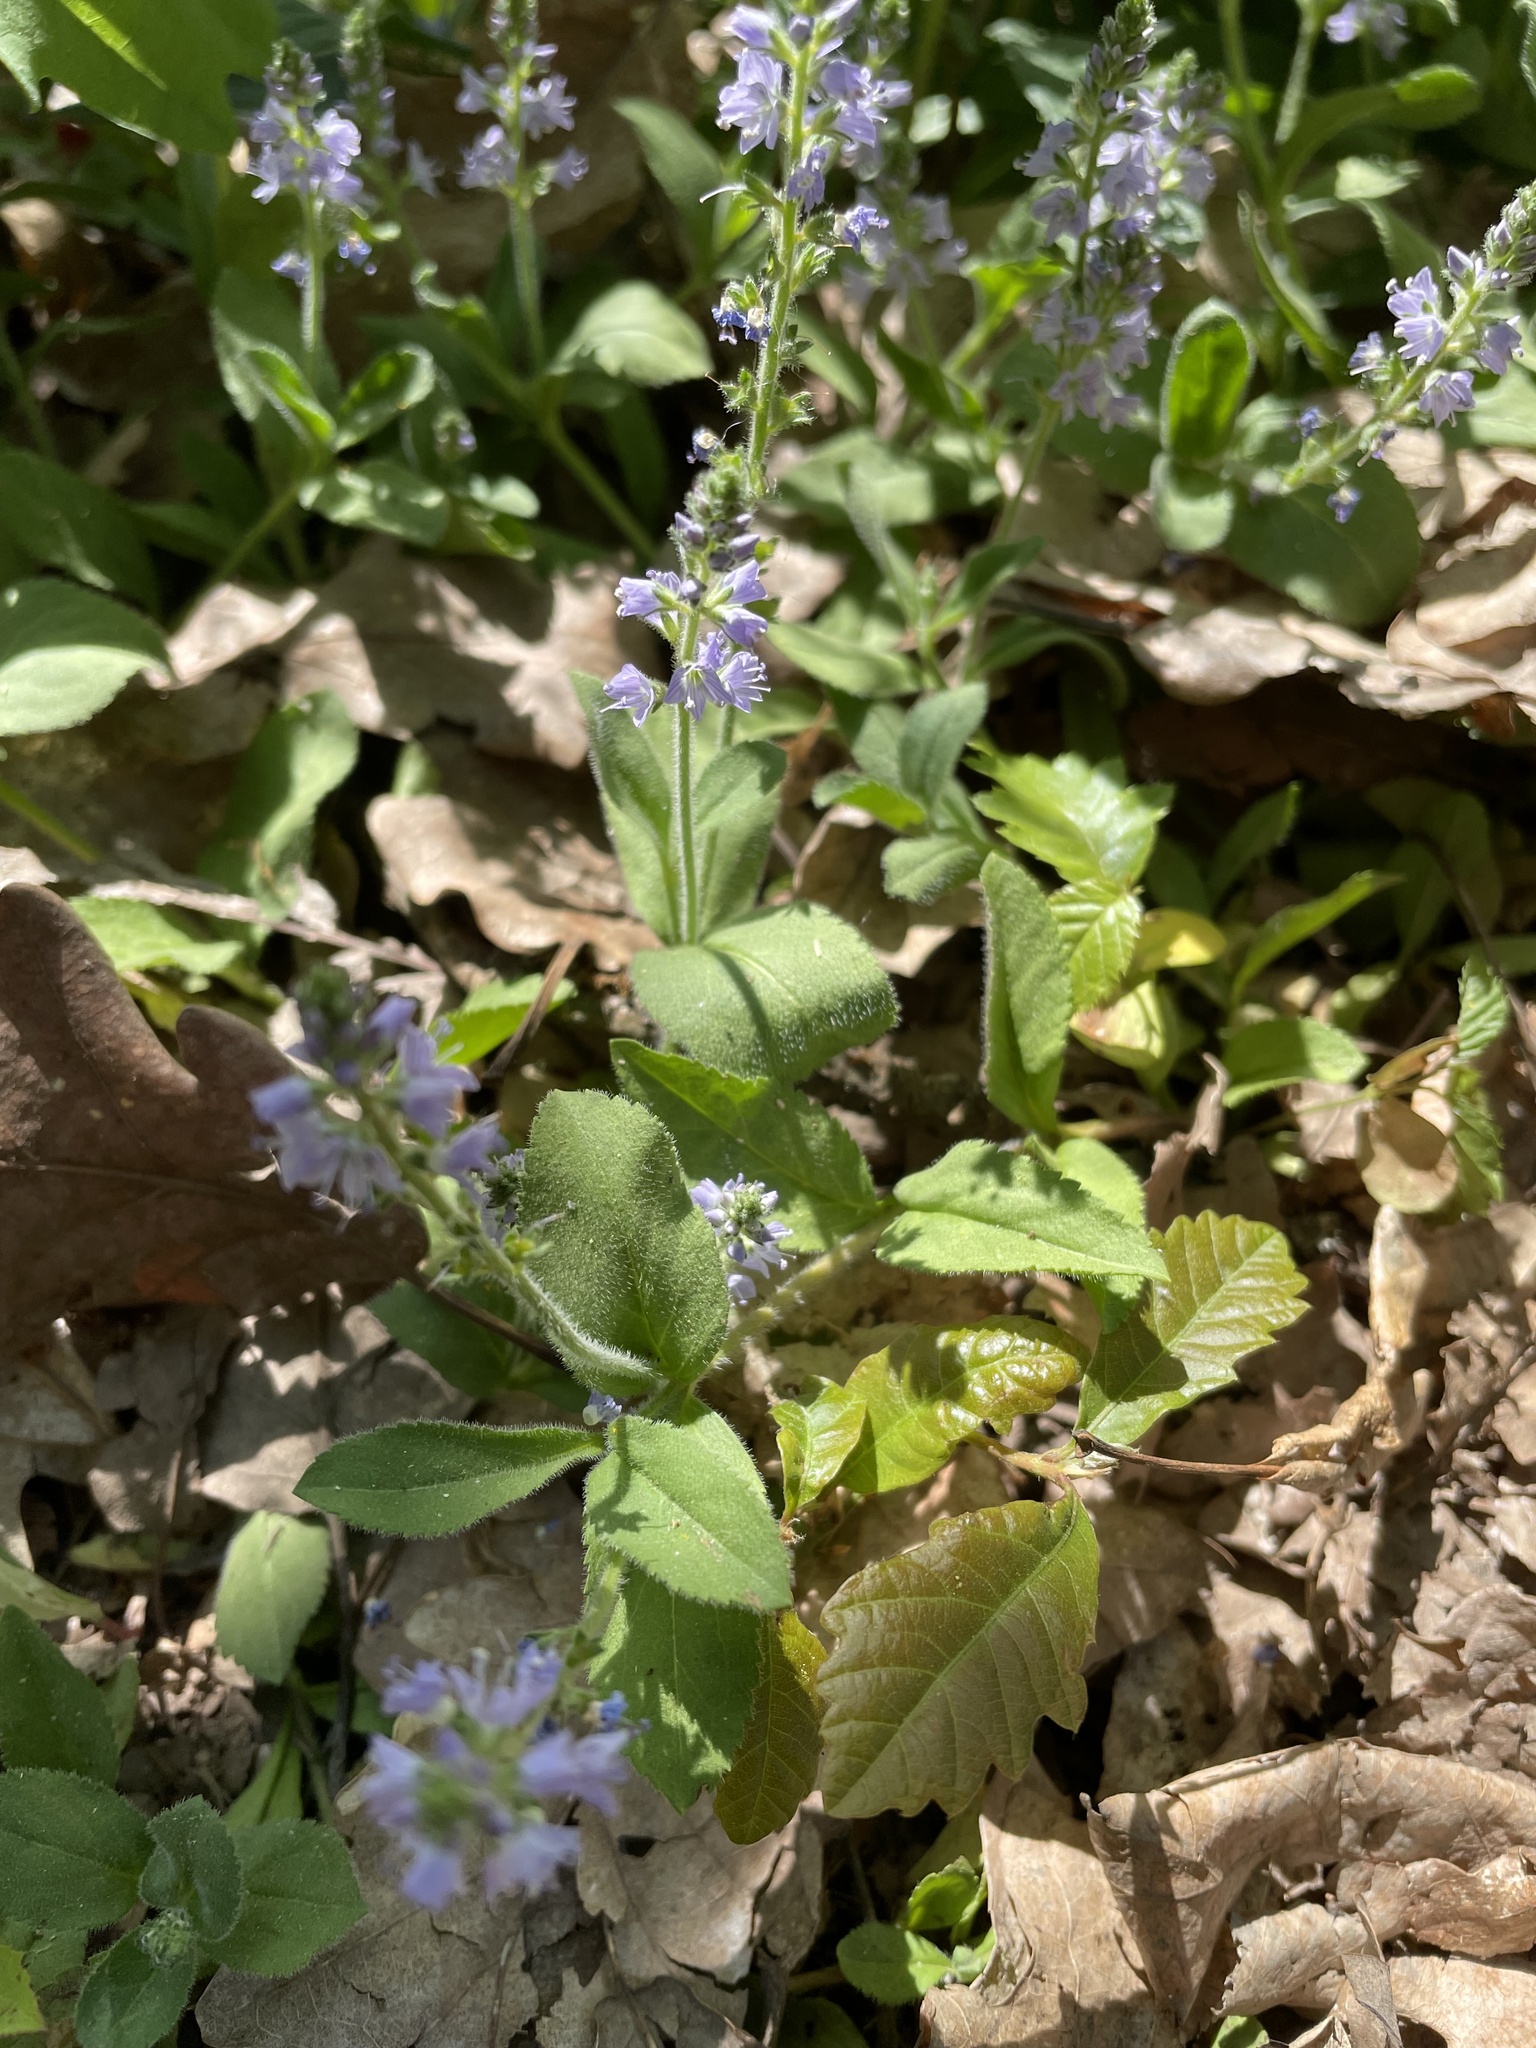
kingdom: Plantae
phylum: Tracheophyta
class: Magnoliopsida
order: Lamiales
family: Plantaginaceae
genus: Veronica
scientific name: Veronica officinalis
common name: Common speedwell
